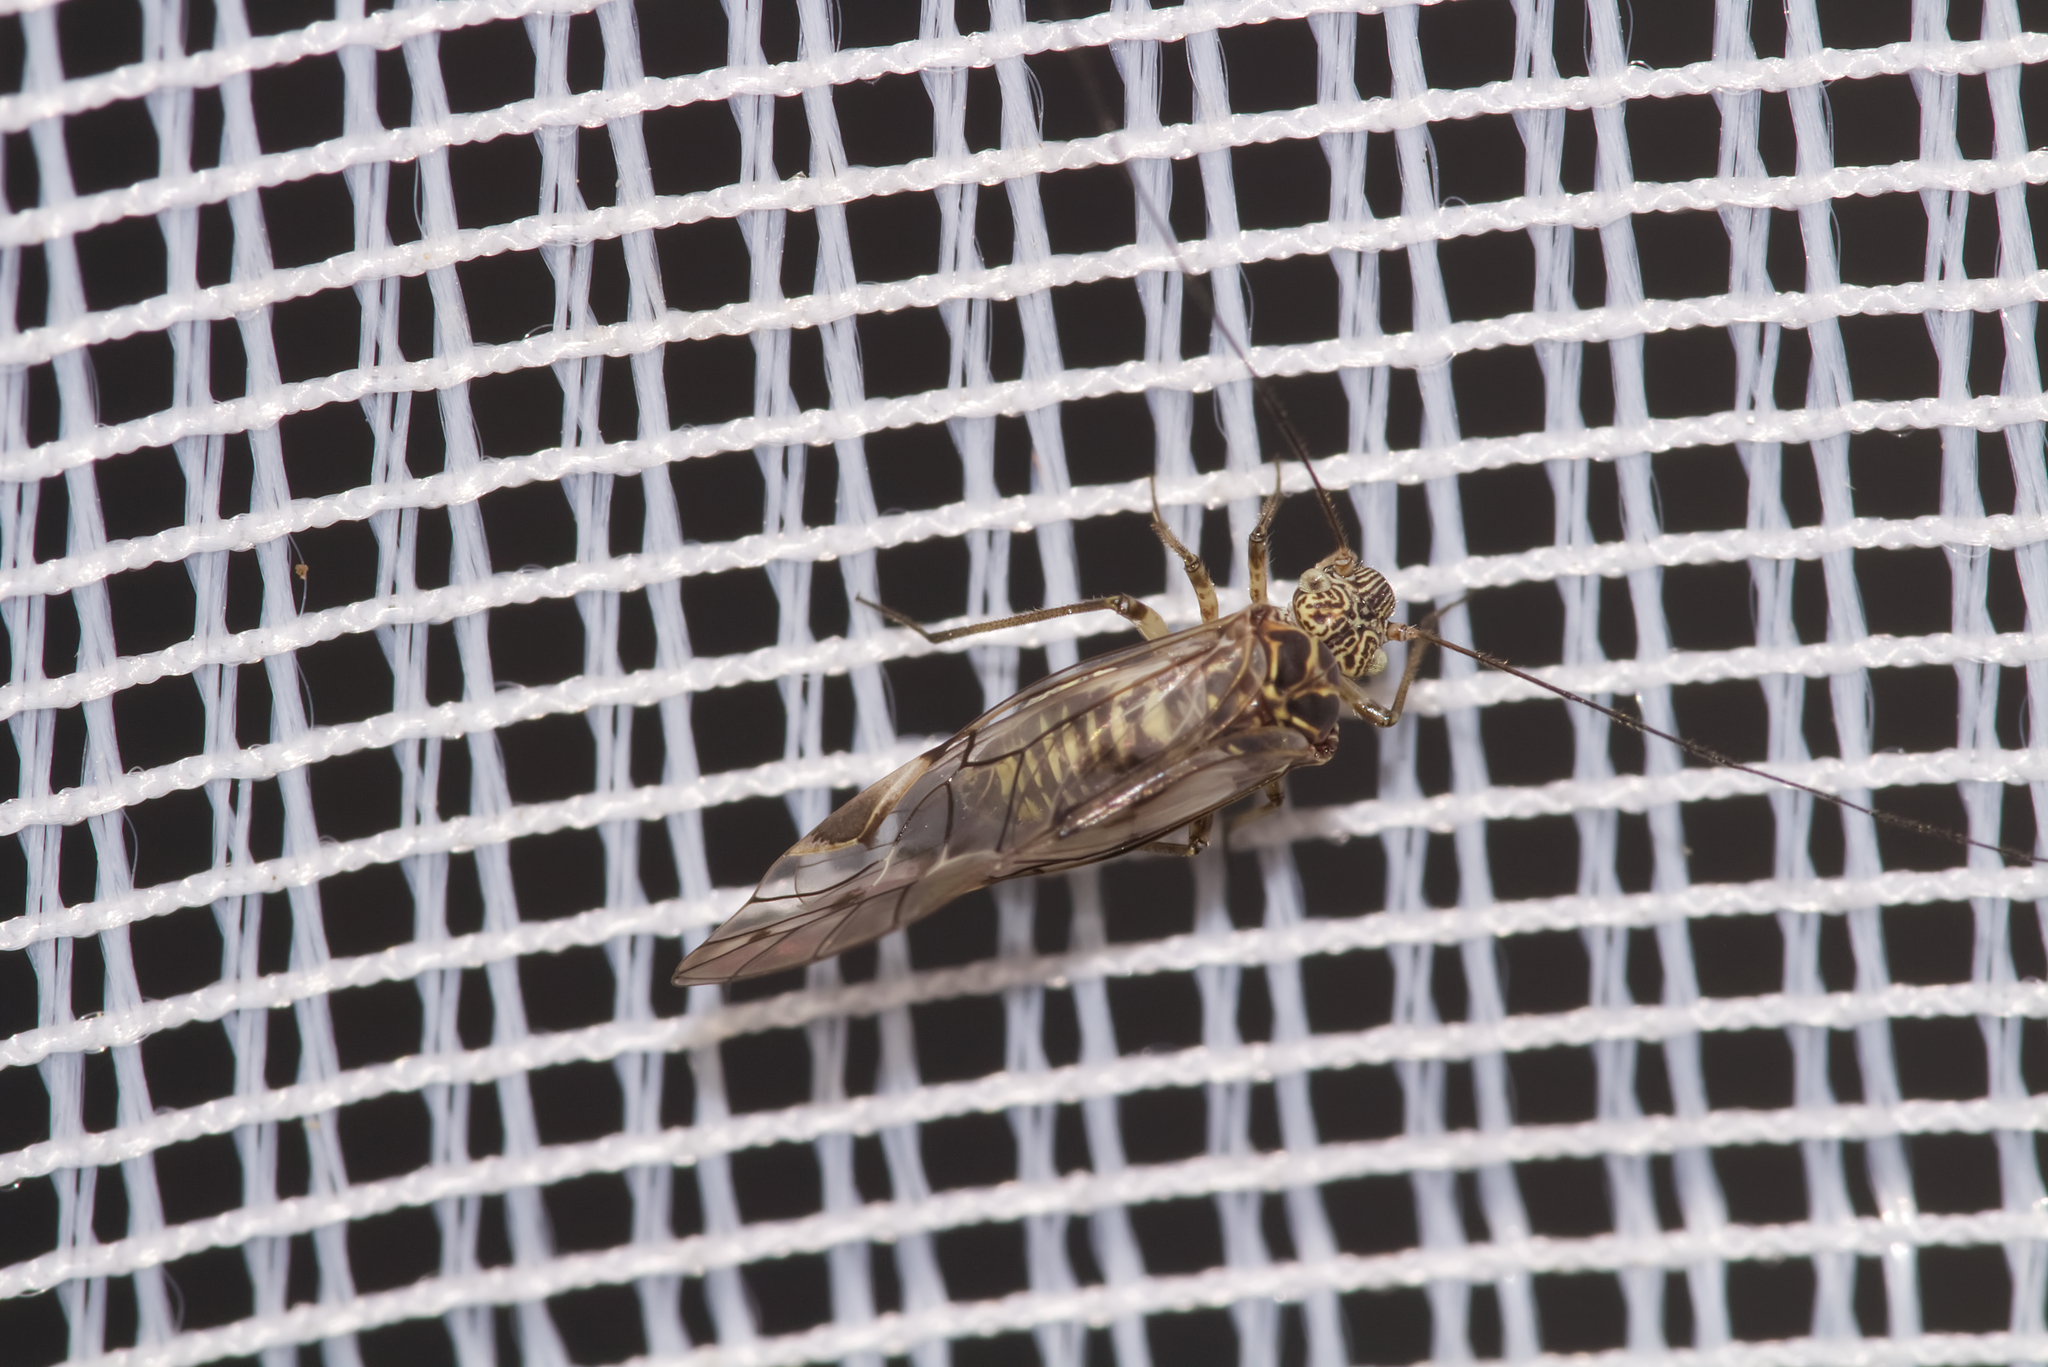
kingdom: Animalia
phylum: Arthropoda
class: Insecta
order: Psocodea
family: Psocidae
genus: Psococerastis
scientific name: Psococerastis gibbosa
